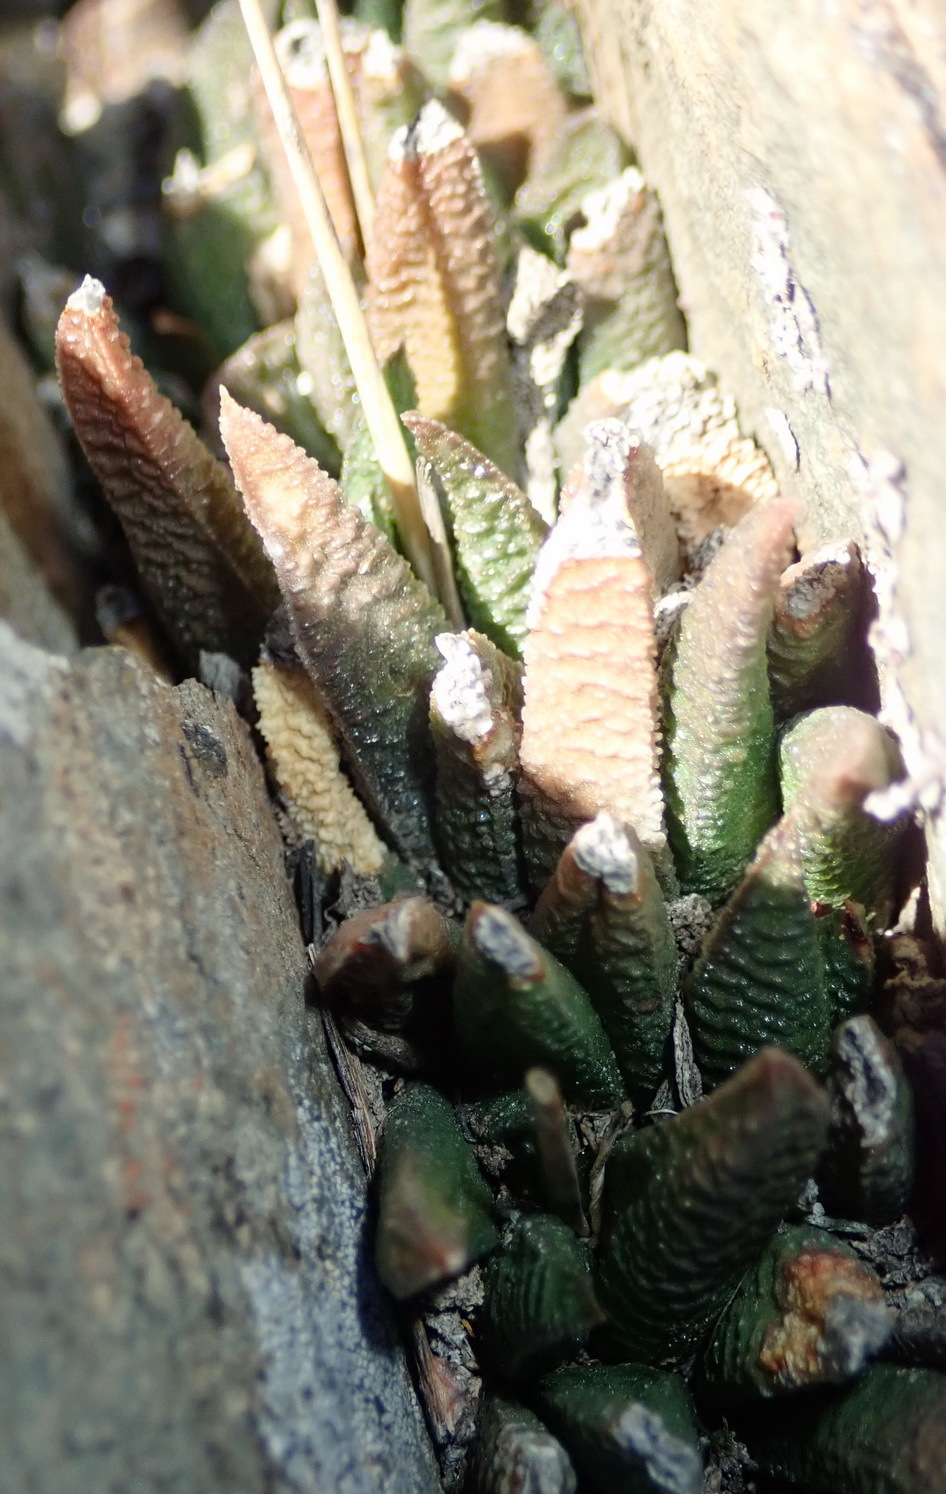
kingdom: Plantae
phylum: Tracheophyta
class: Liliopsida
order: Asparagales
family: Asphodelaceae
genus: Haworthiopsis
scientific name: Haworthiopsis scabra
